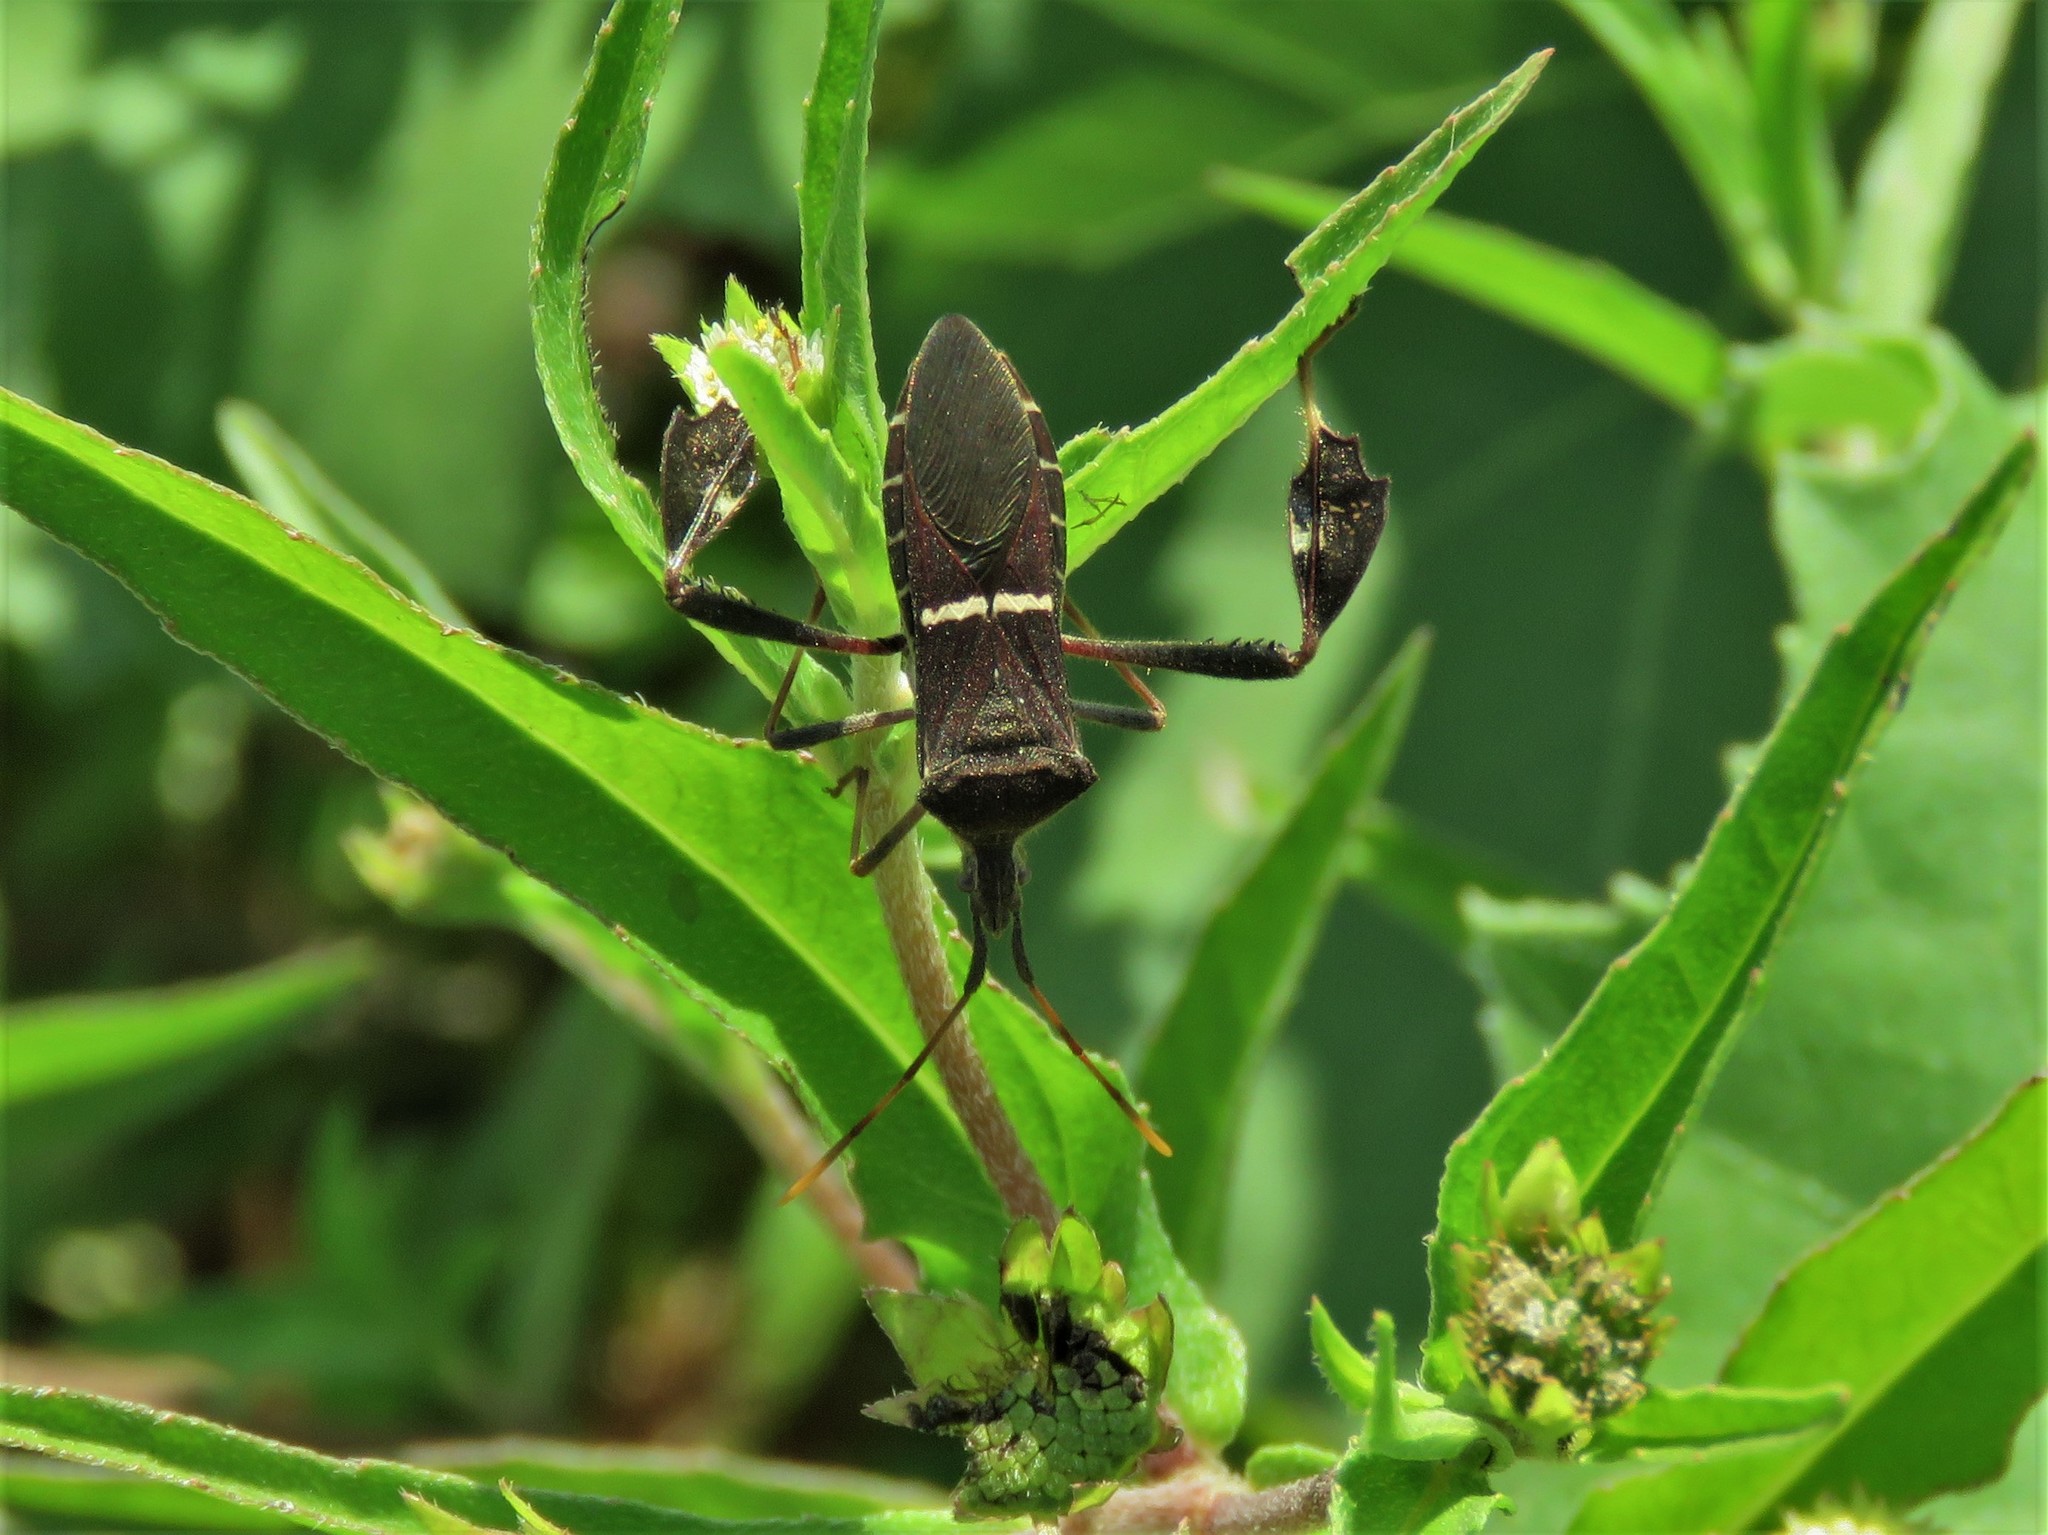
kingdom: Animalia
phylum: Arthropoda
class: Insecta
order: Hemiptera
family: Coreidae
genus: Leptoglossus
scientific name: Leptoglossus phyllopus
